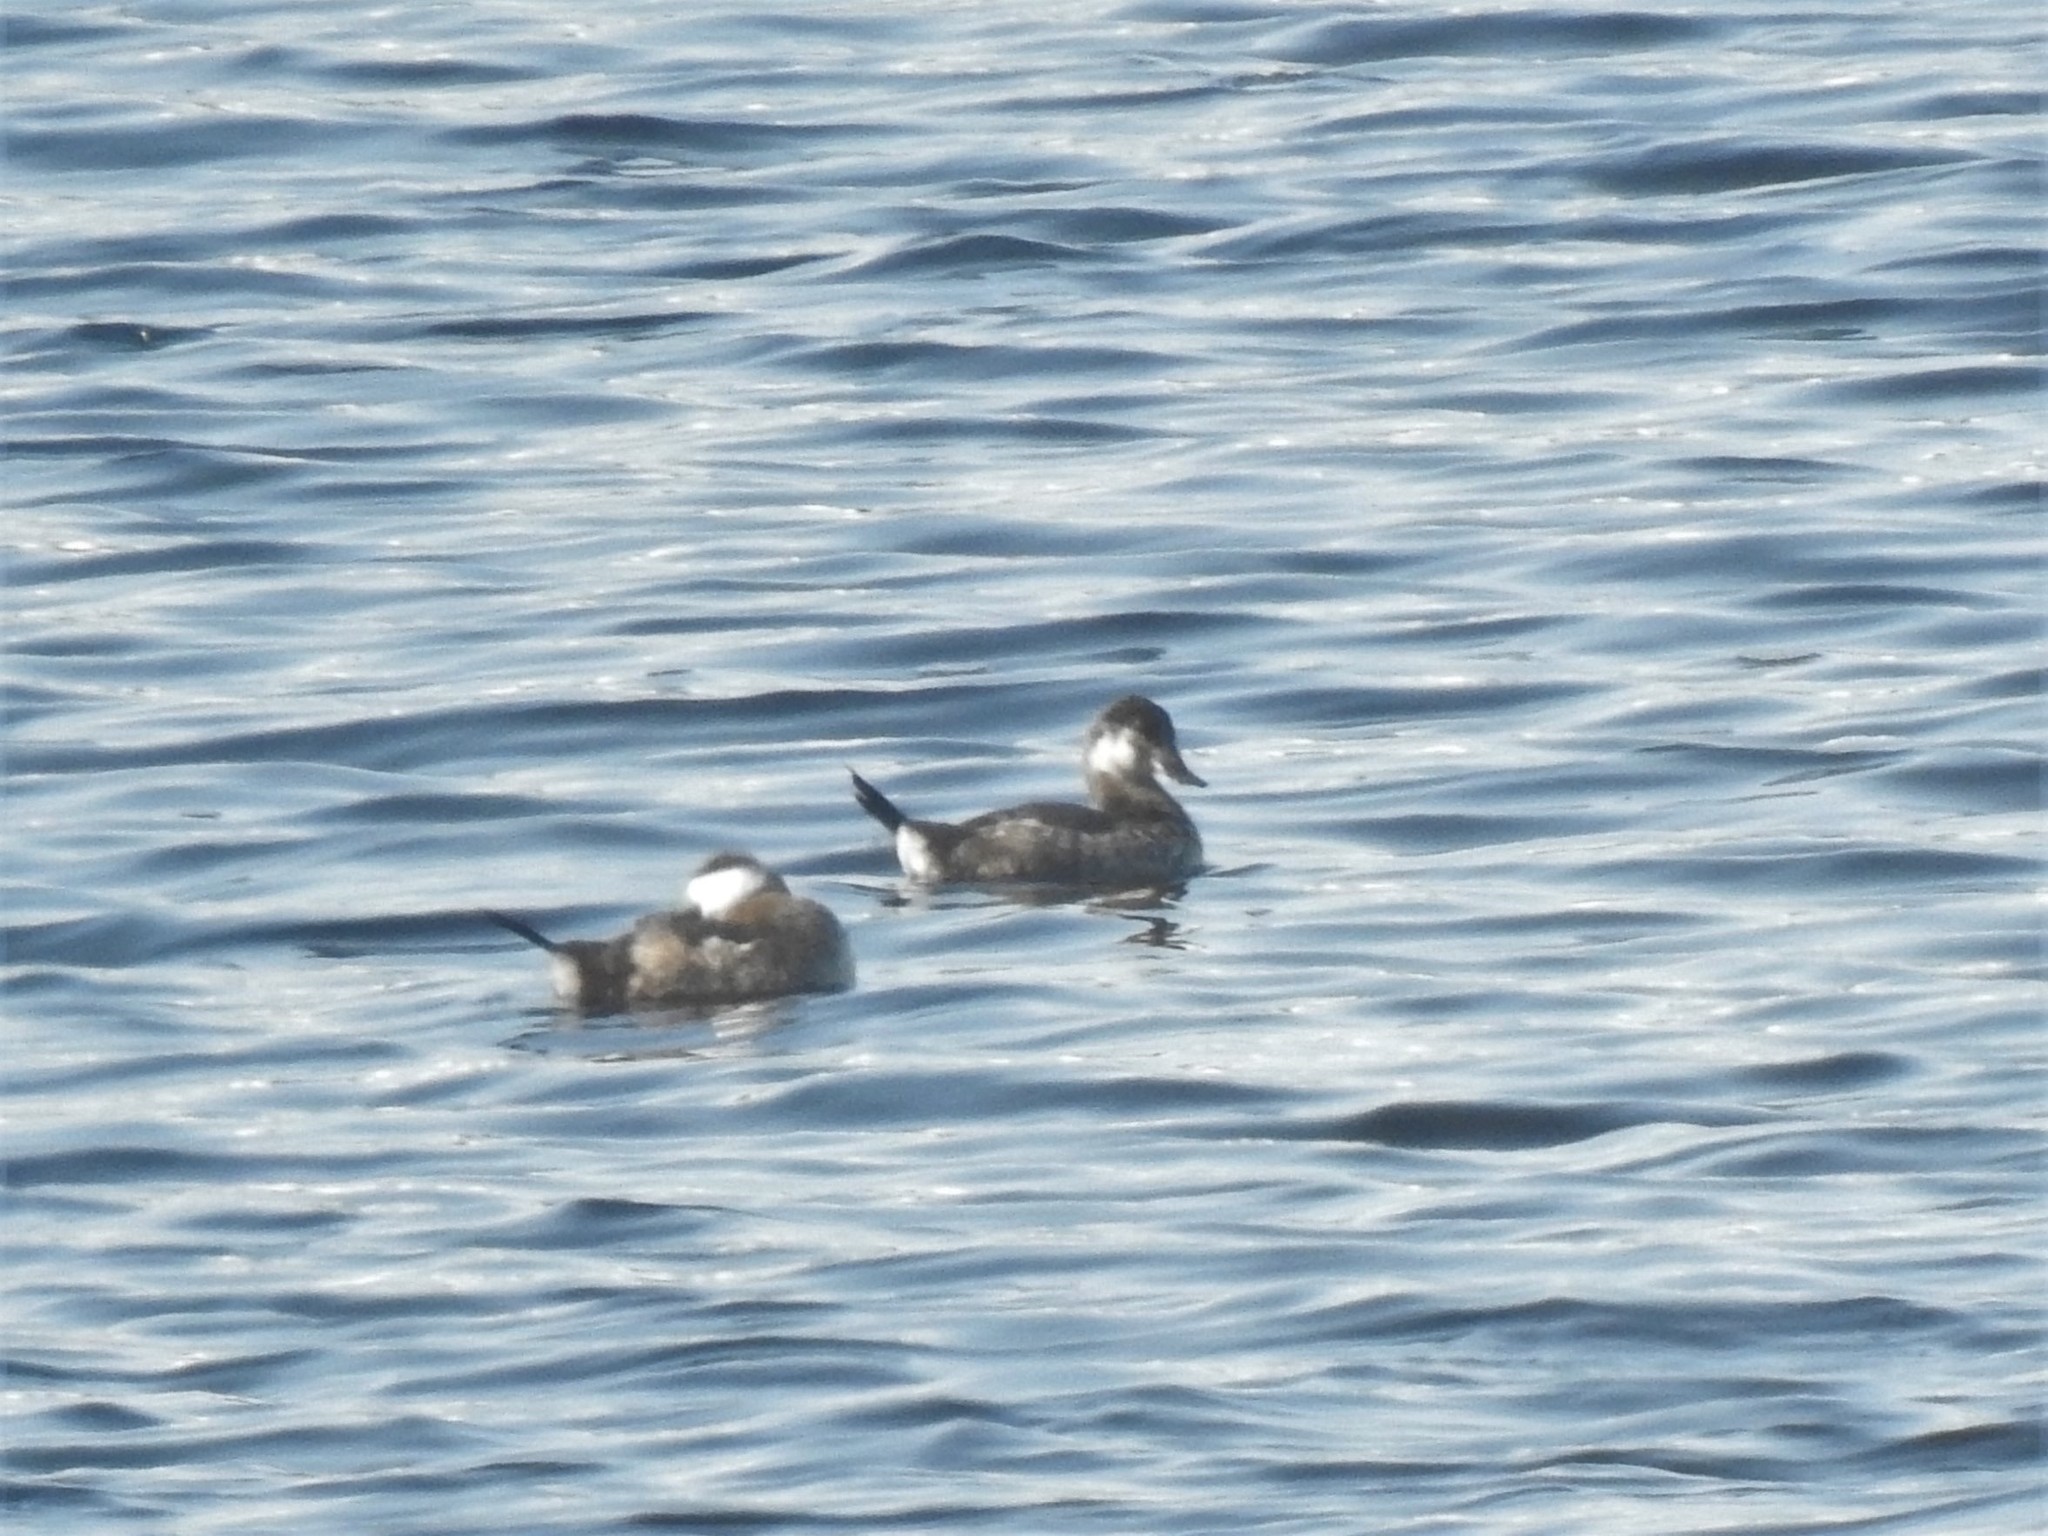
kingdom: Animalia
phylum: Chordata
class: Aves
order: Anseriformes
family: Anatidae
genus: Oxyura
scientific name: Oxyura jamaicensis
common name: Ruddy duck
